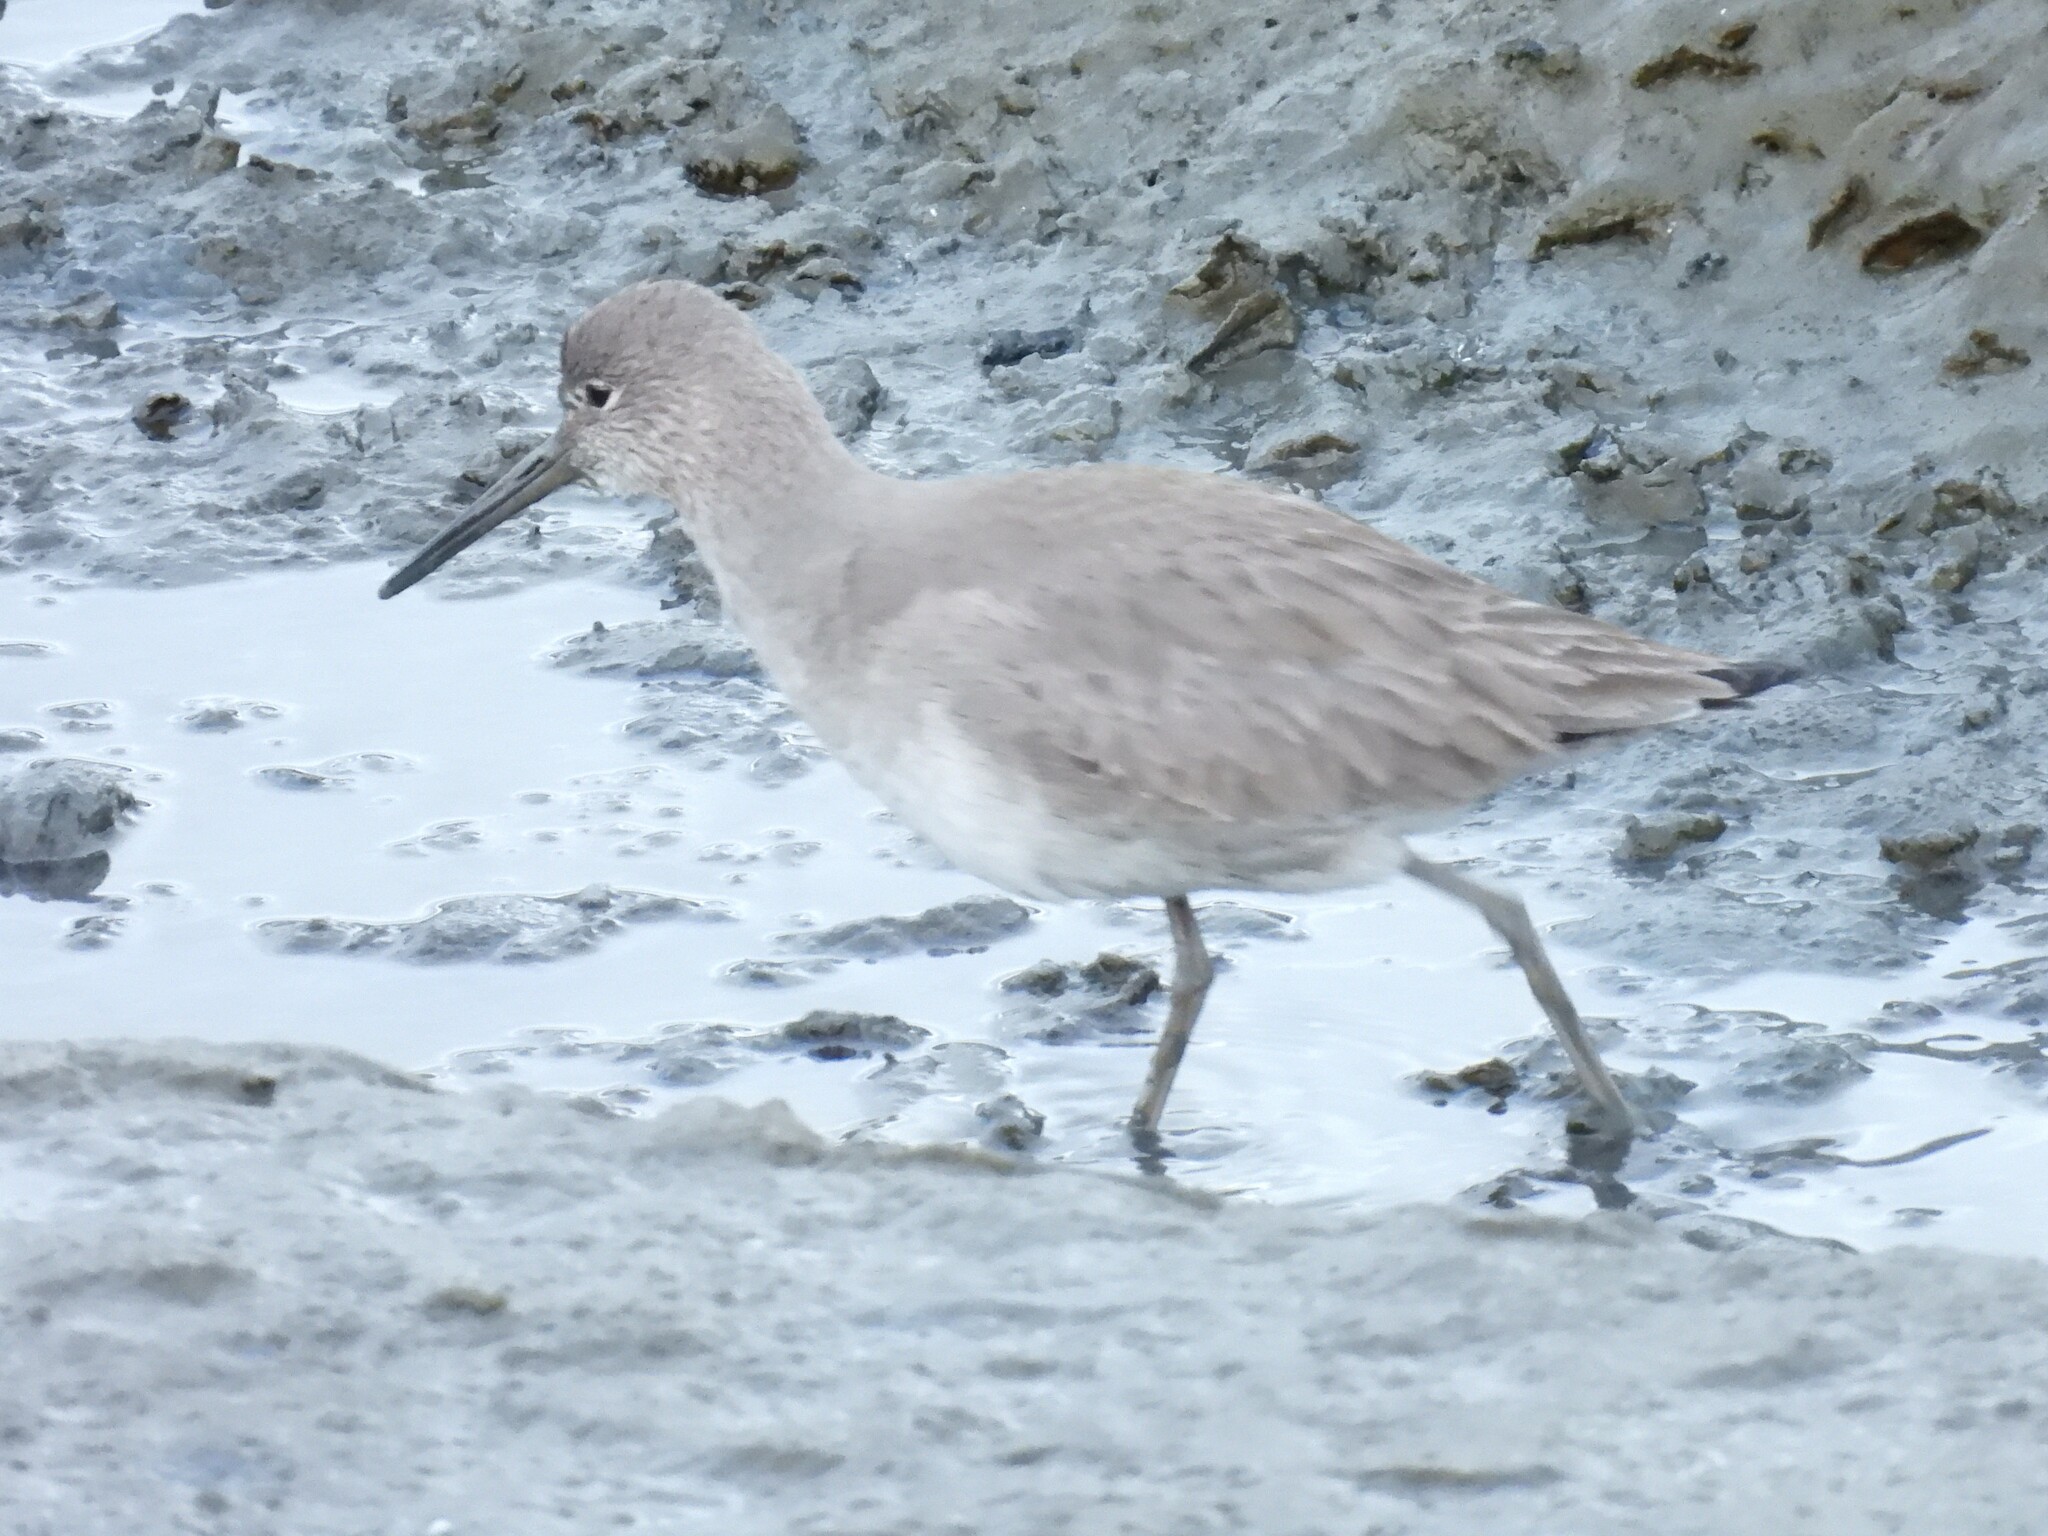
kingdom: Animalia
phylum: Chordata
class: Aves
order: Charadriiformes
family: Scolopacidae
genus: Tringa
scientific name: Tringa semipalmata
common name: Willet
